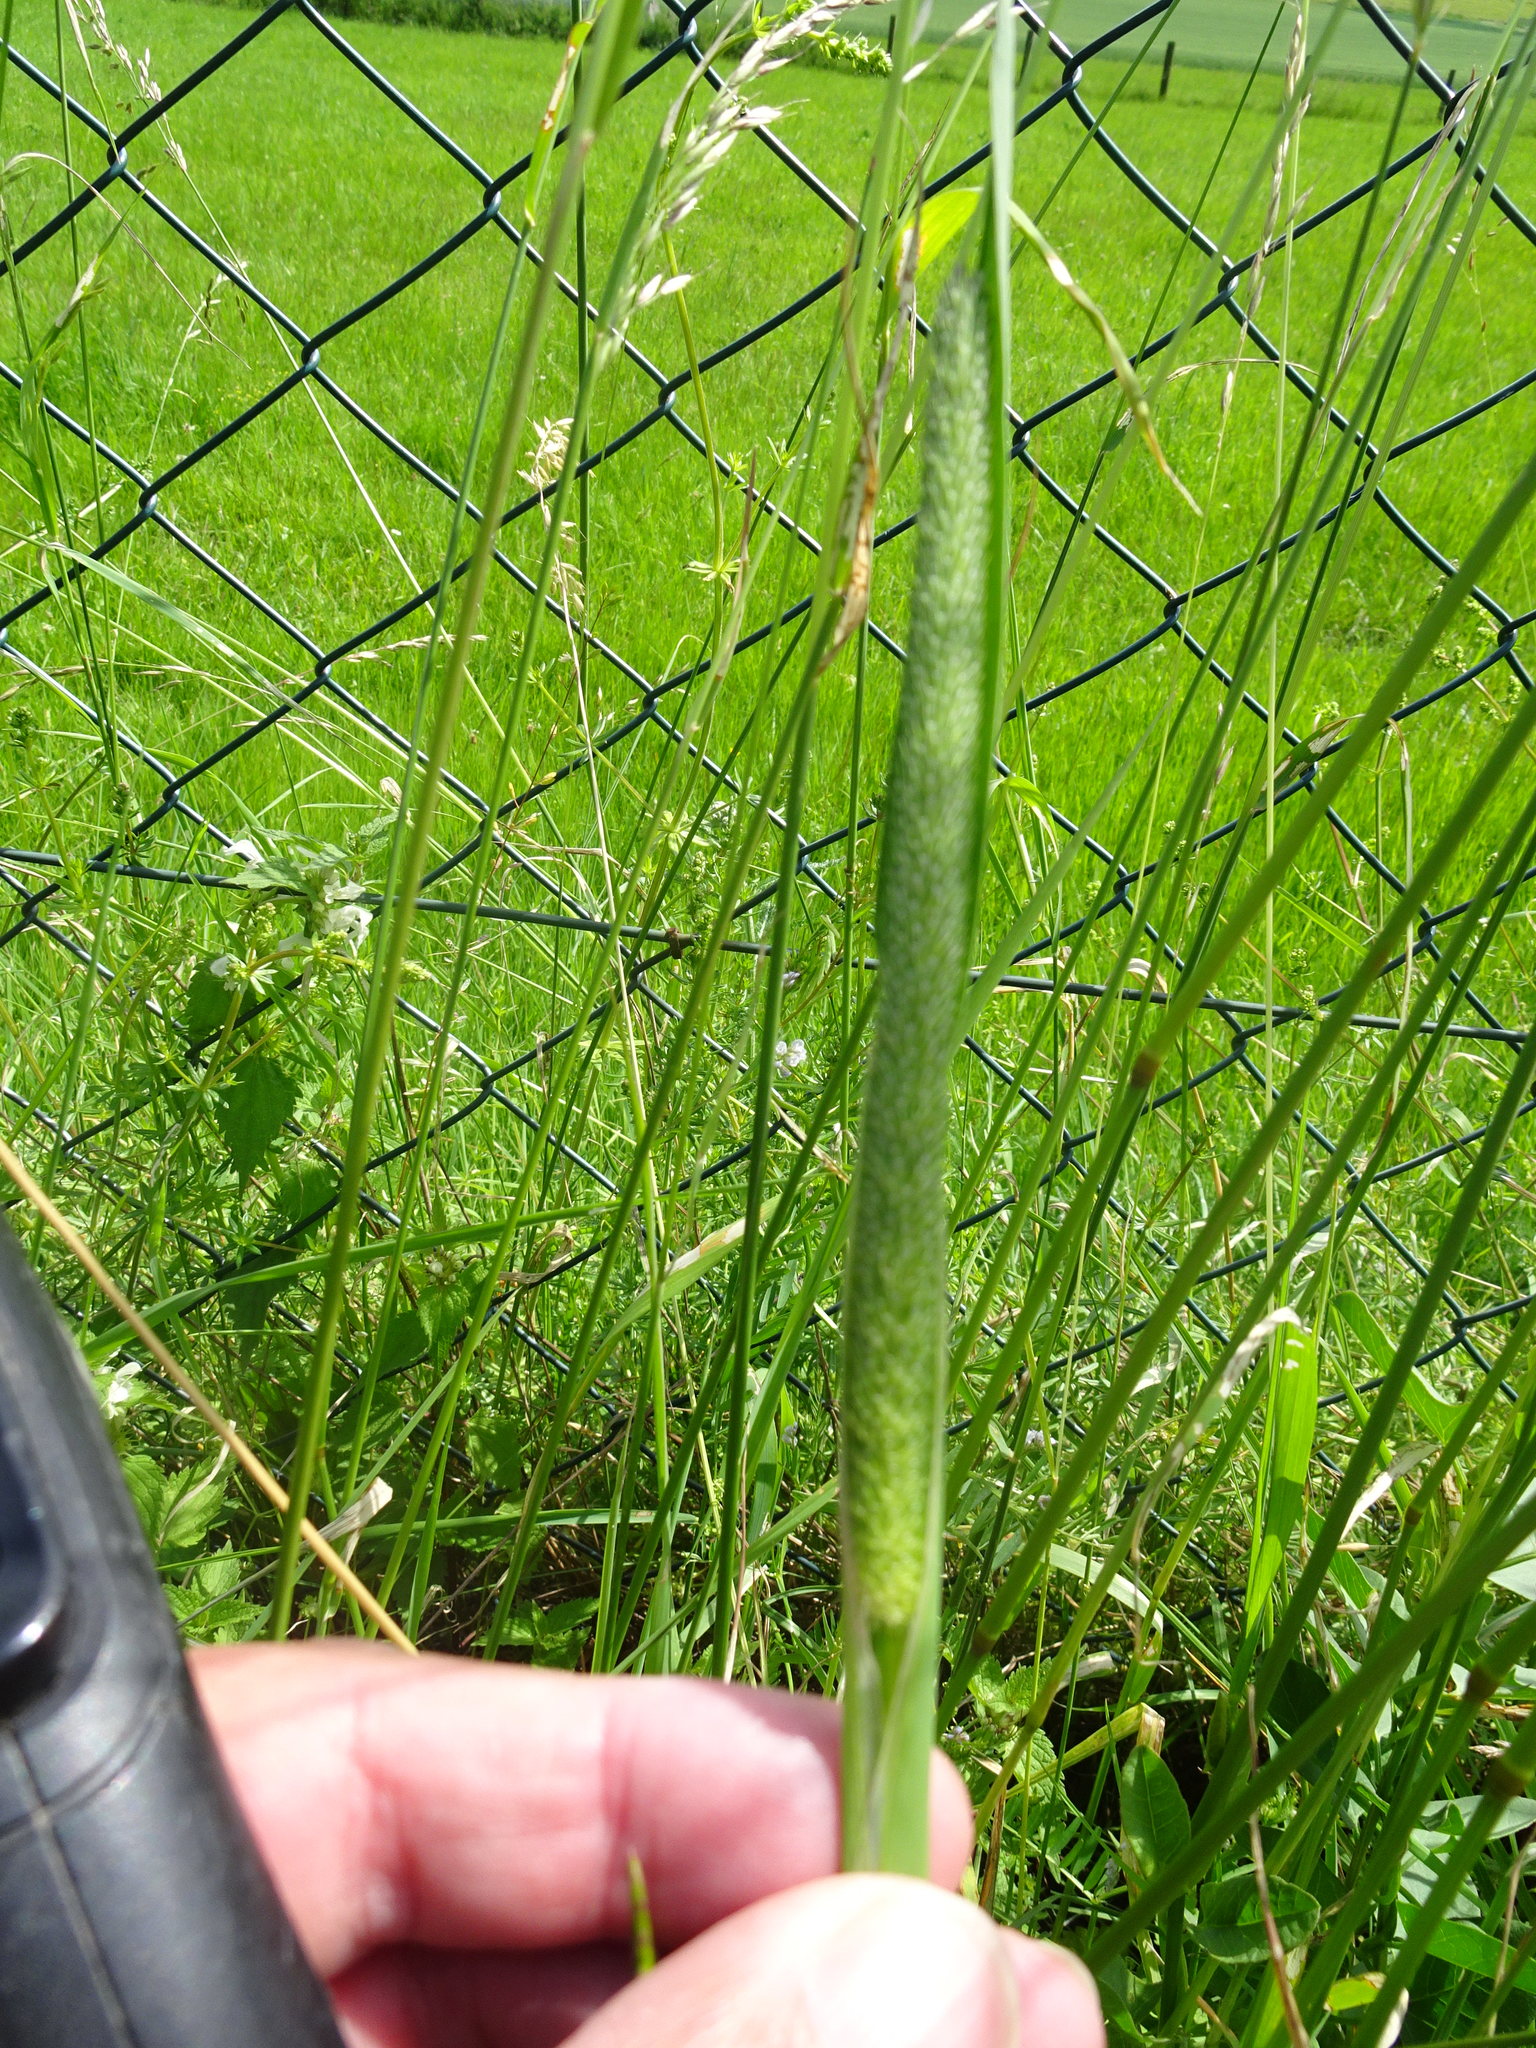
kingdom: Plantae
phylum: Tracheophyta
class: Liliopsida
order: Poales
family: Poaceae
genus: Phleum
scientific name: Phleum pratense
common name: Timothy grass
